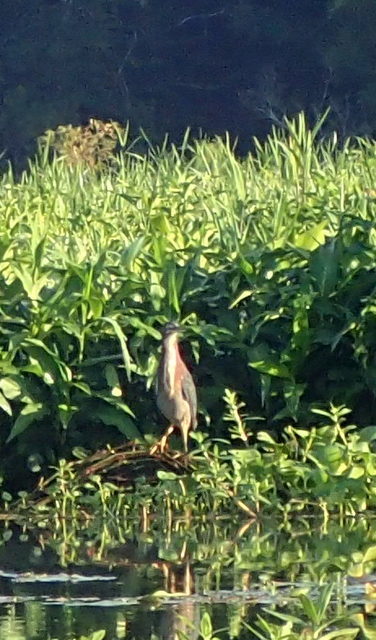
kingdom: Animalia
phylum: Chordata
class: Aves
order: Pelecaniformes
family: Ardeidae
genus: Butorides
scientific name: Butorides virescens
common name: Green heron
